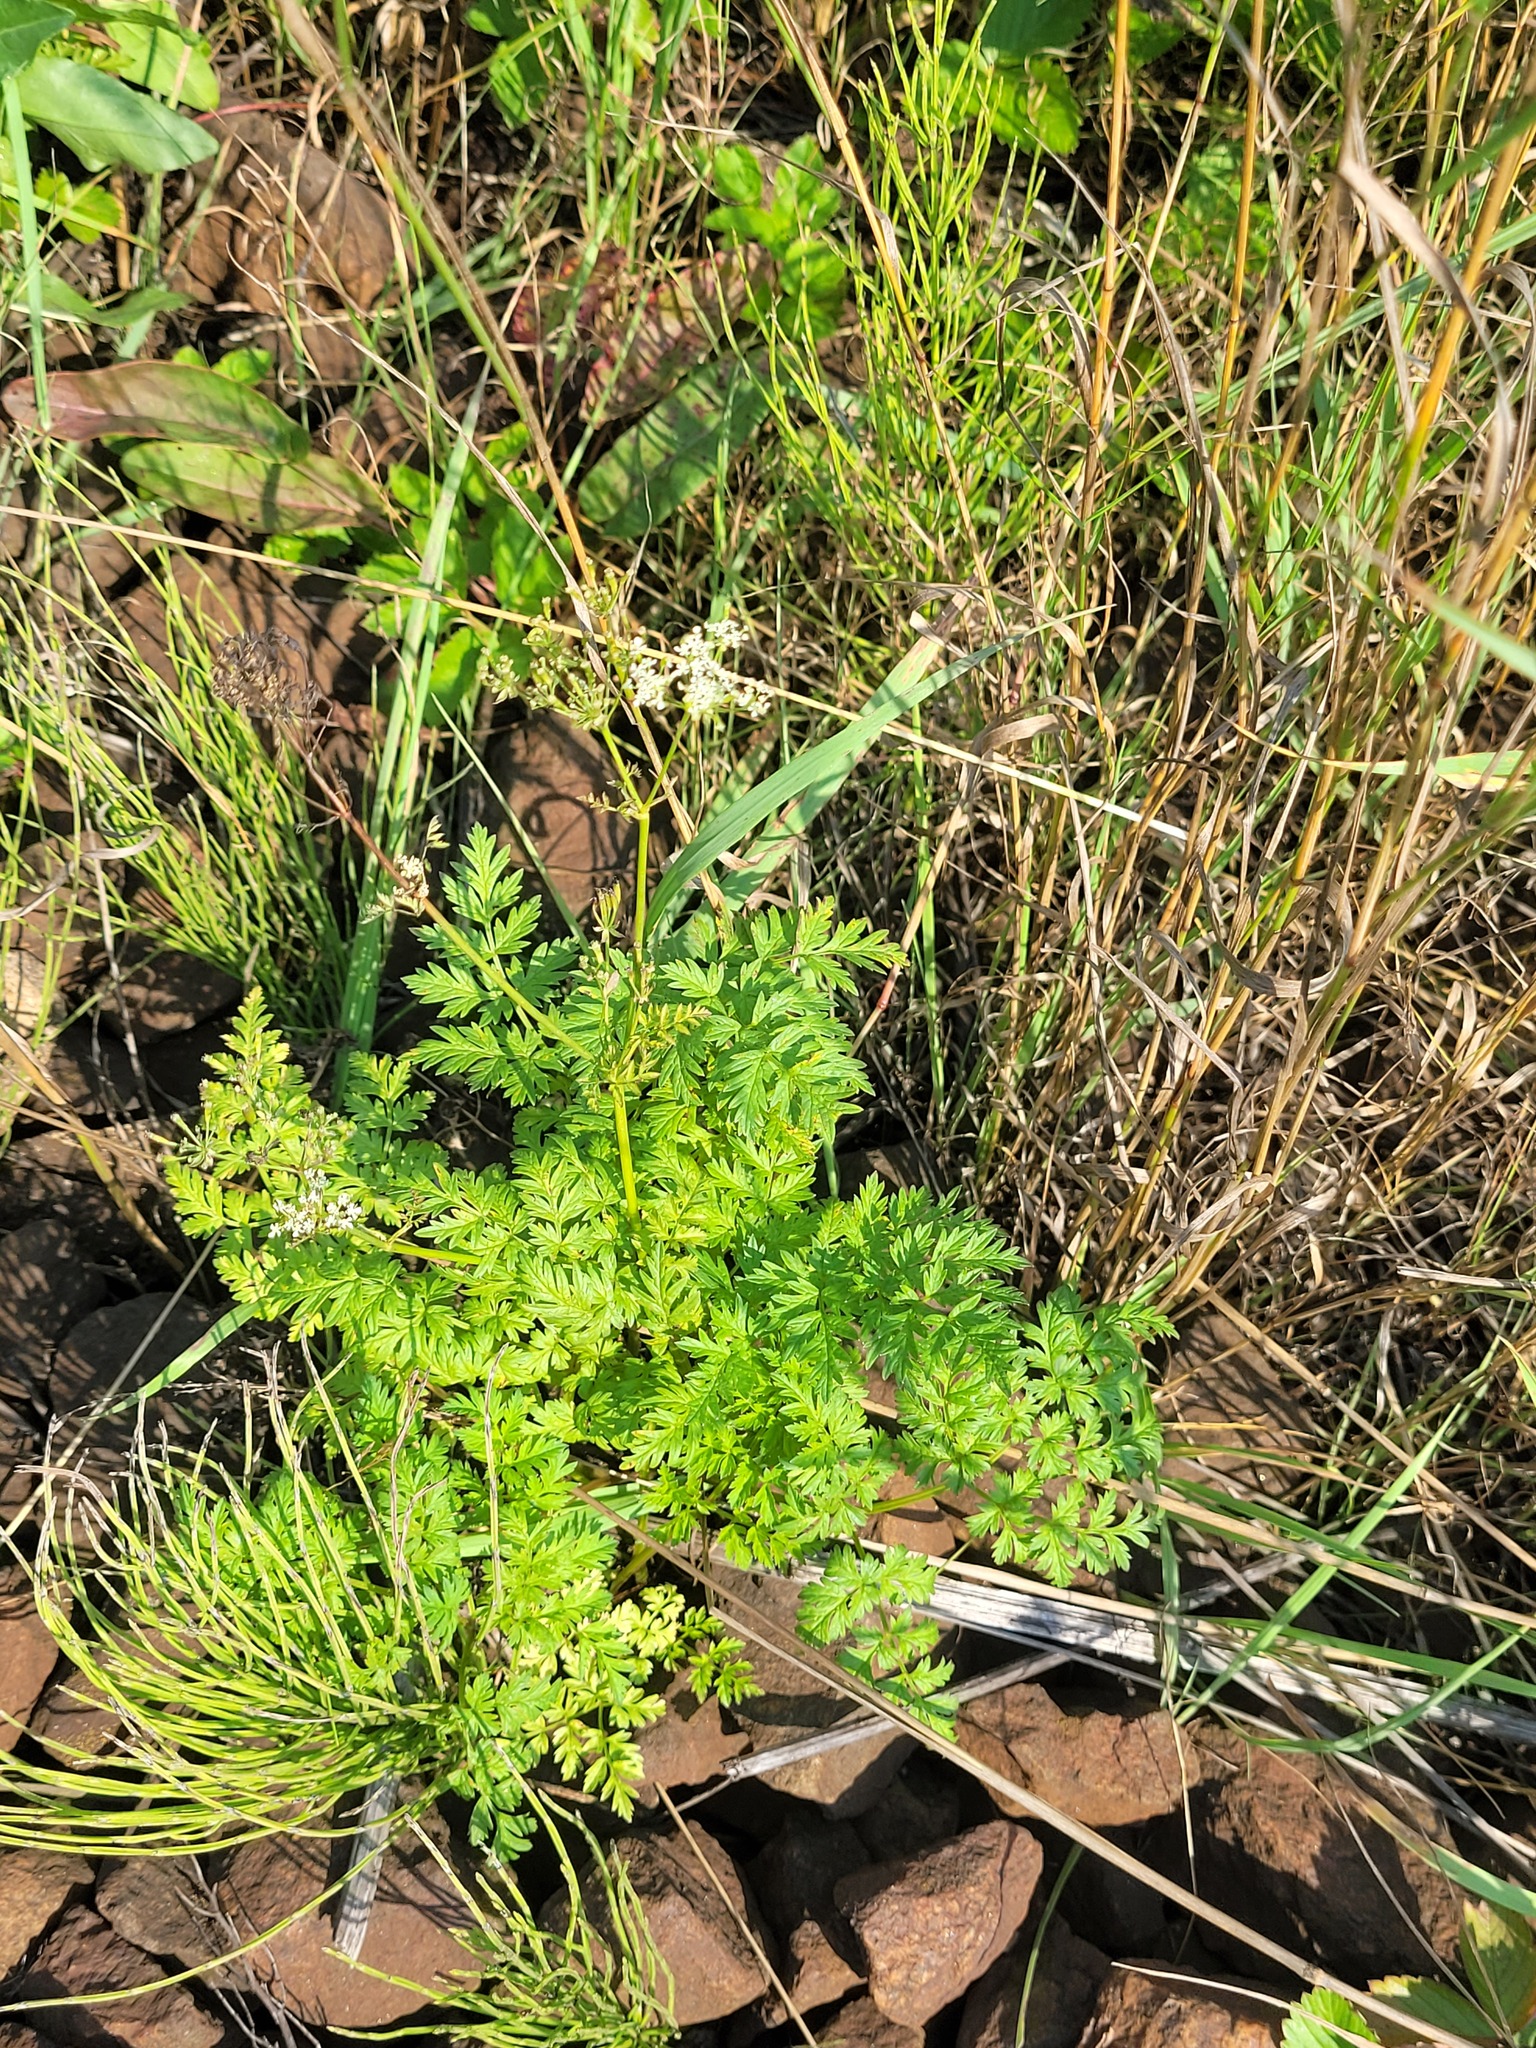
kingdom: Plantae
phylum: Tracheophyta
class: Magnoliopsida
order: Apiales
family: Apiaceae
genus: Anthriscus
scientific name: Anthriscus sylvestris
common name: Cow parsley
